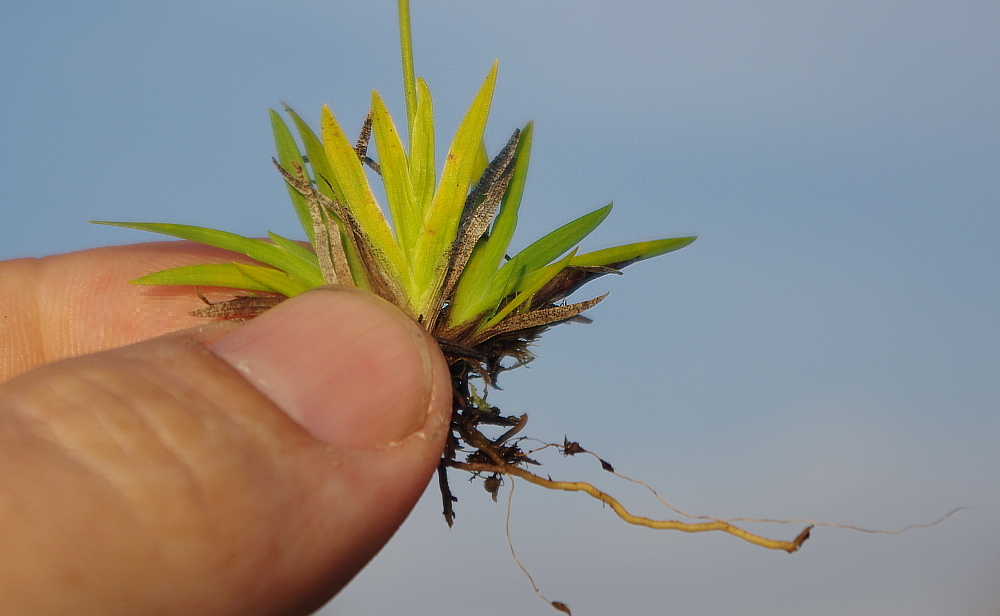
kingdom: Plantae
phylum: Tracheophyta
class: Liliopsida
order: Alismatales
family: Tofieldiaceae
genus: Tofieldia
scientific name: Tofieldia pusilla
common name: Scottish false asphodel
